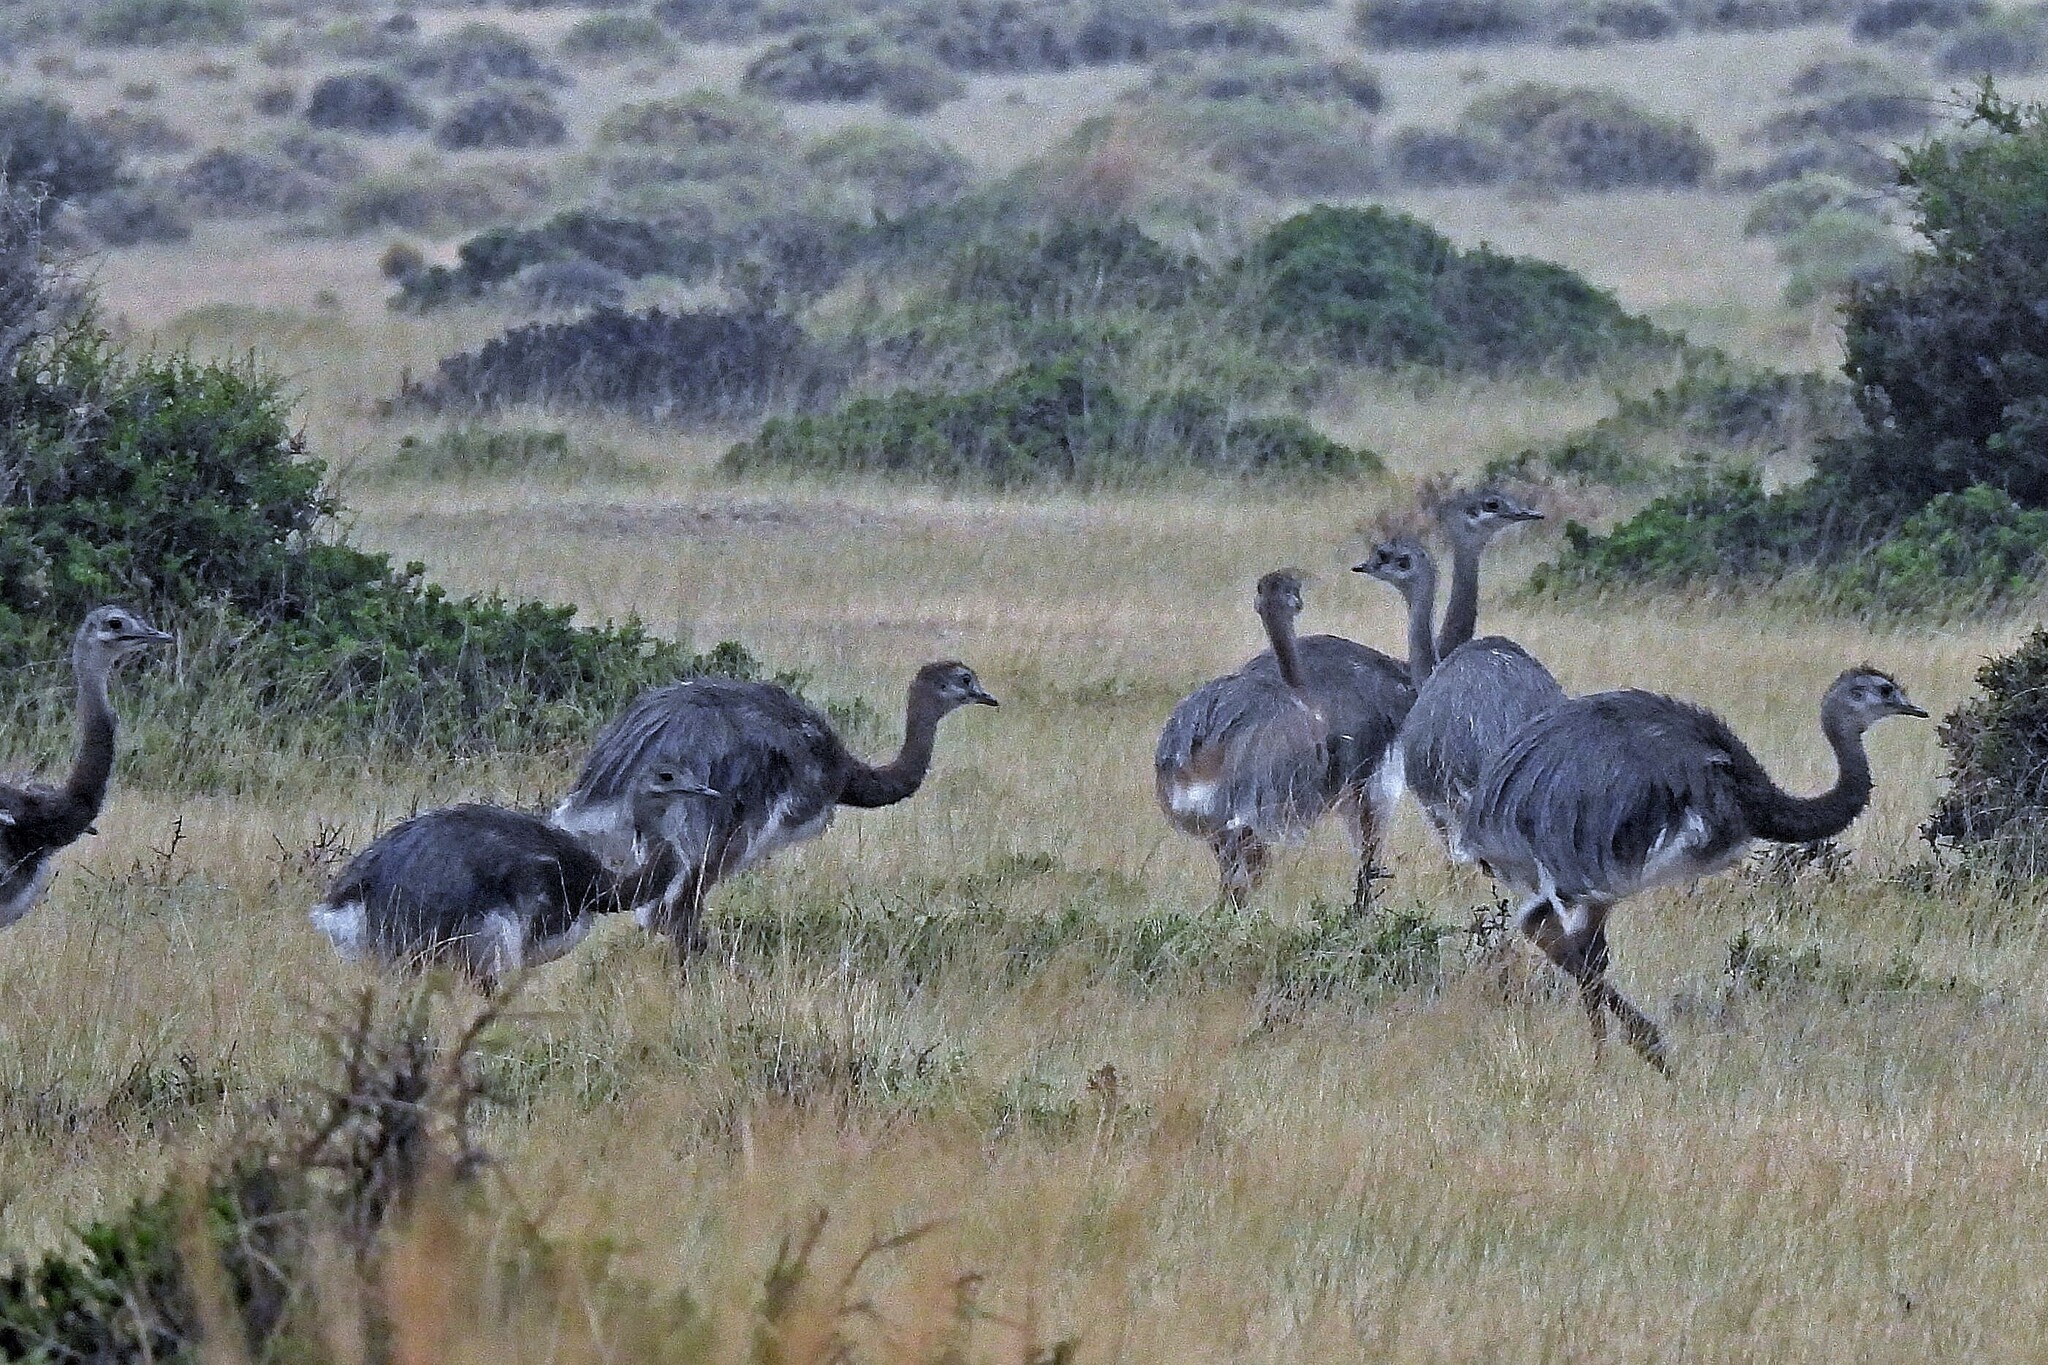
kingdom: Animalia
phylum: Chordata
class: Aves
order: Rheiformes
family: Rheidae
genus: Rhea
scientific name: Rhea pennata
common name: Lesser rhea
